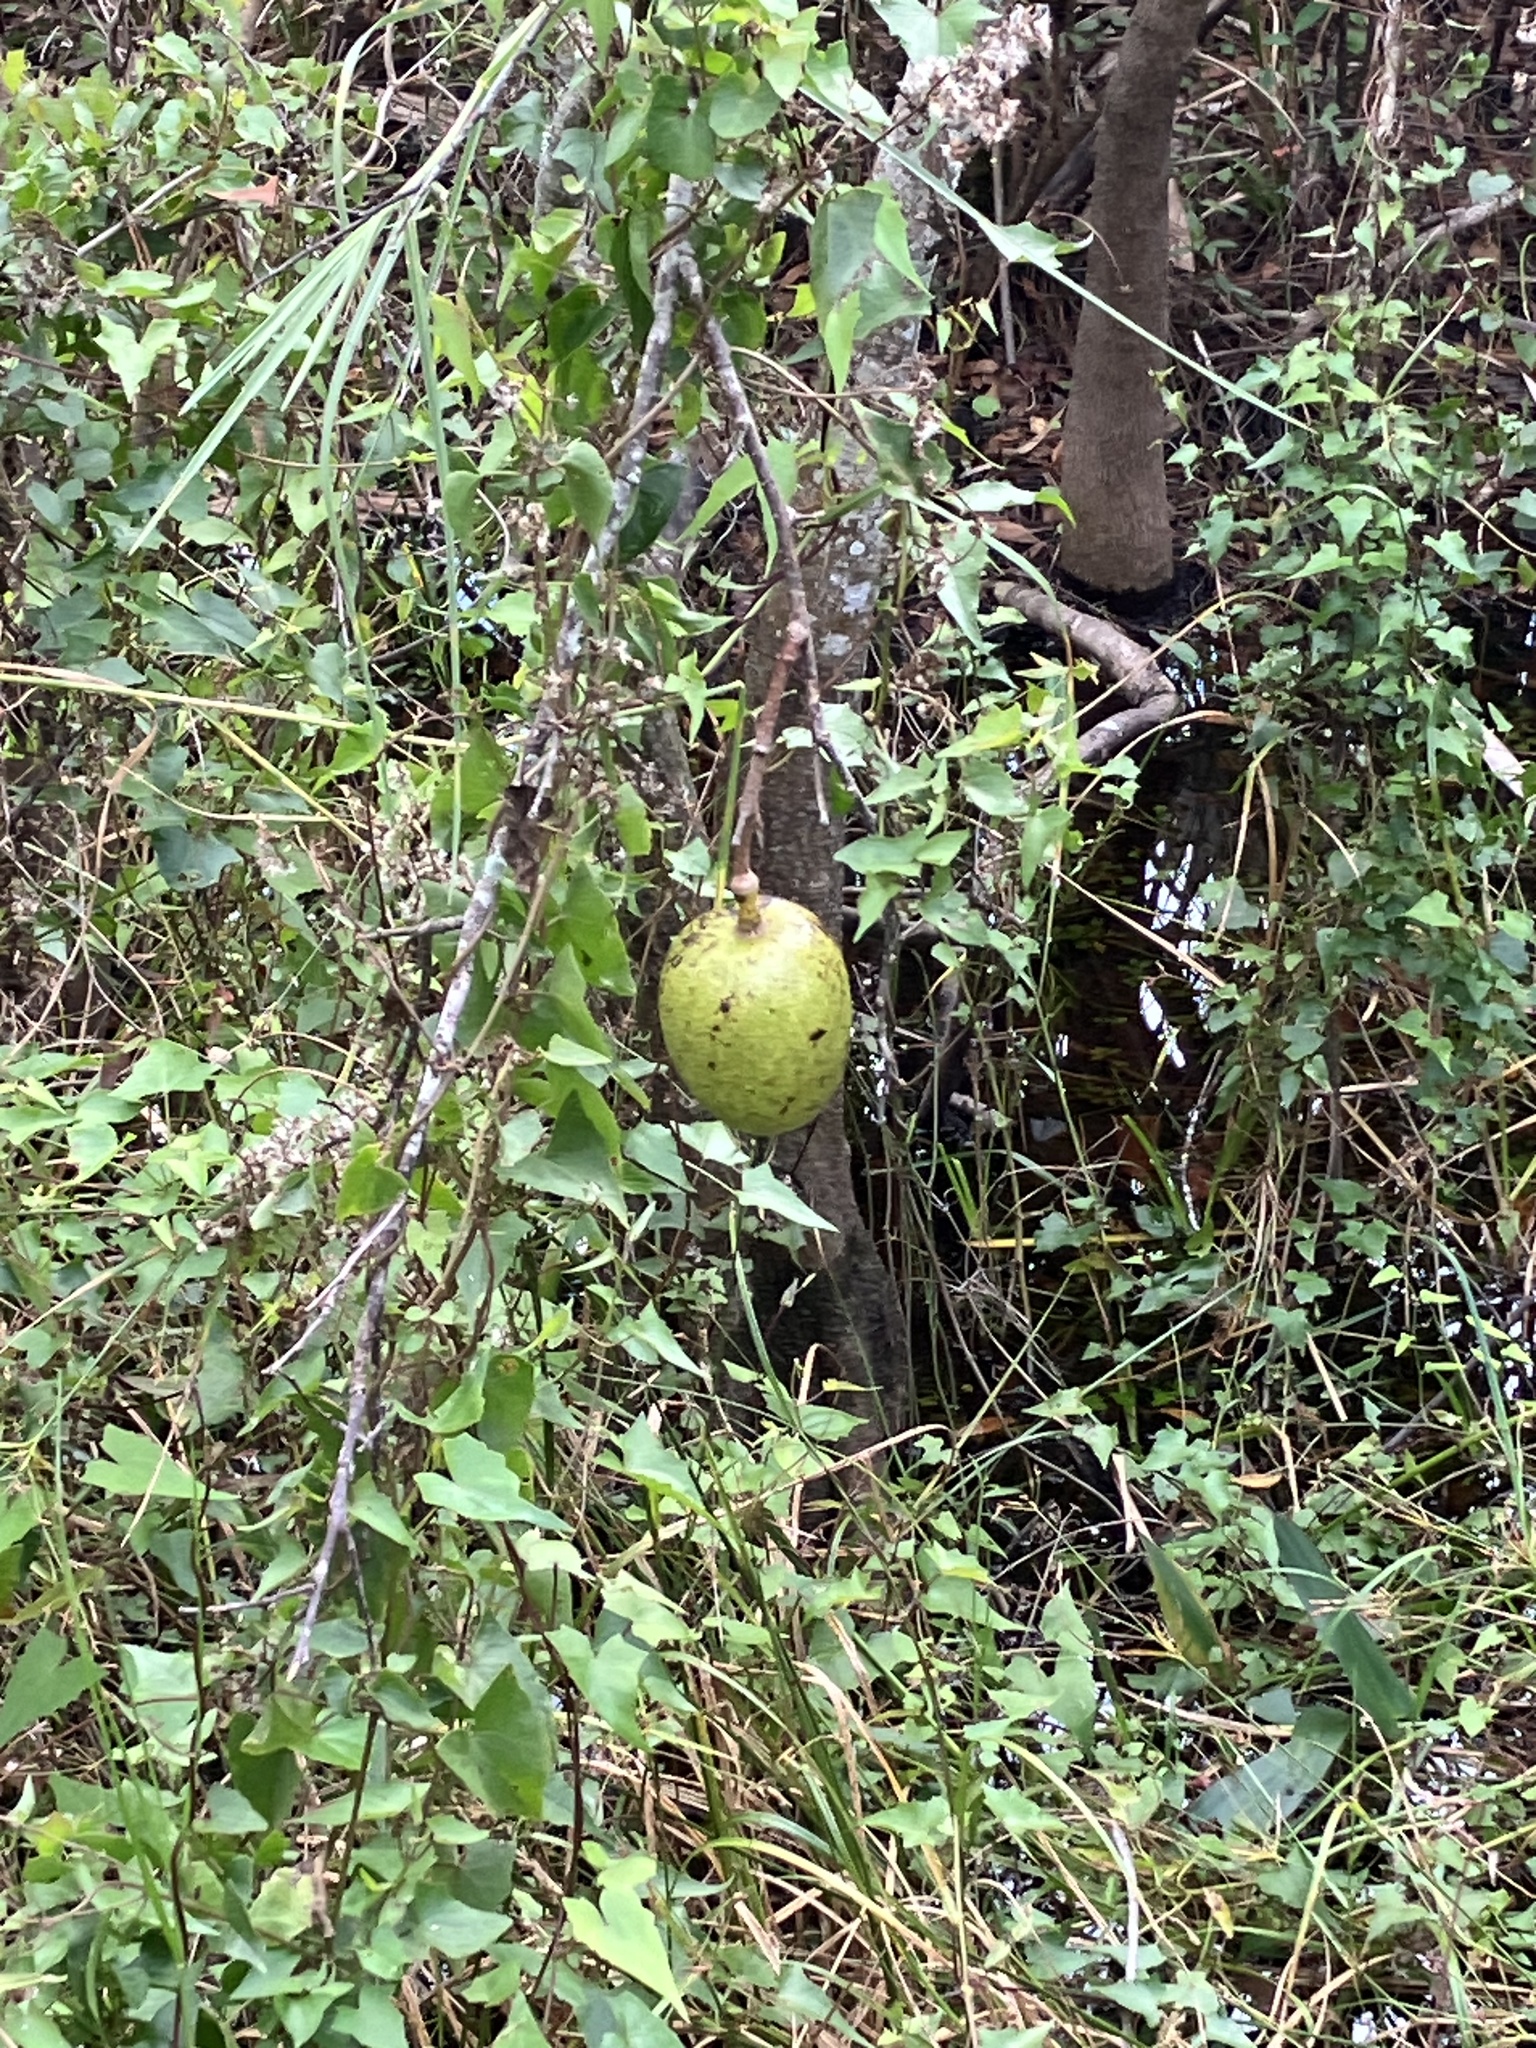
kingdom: Plantae
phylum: Tracheophyta
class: Magnoliopsida
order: Magnoliales
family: Annonaceae
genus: Annona
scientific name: Annona glabra
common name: Monkey apple
